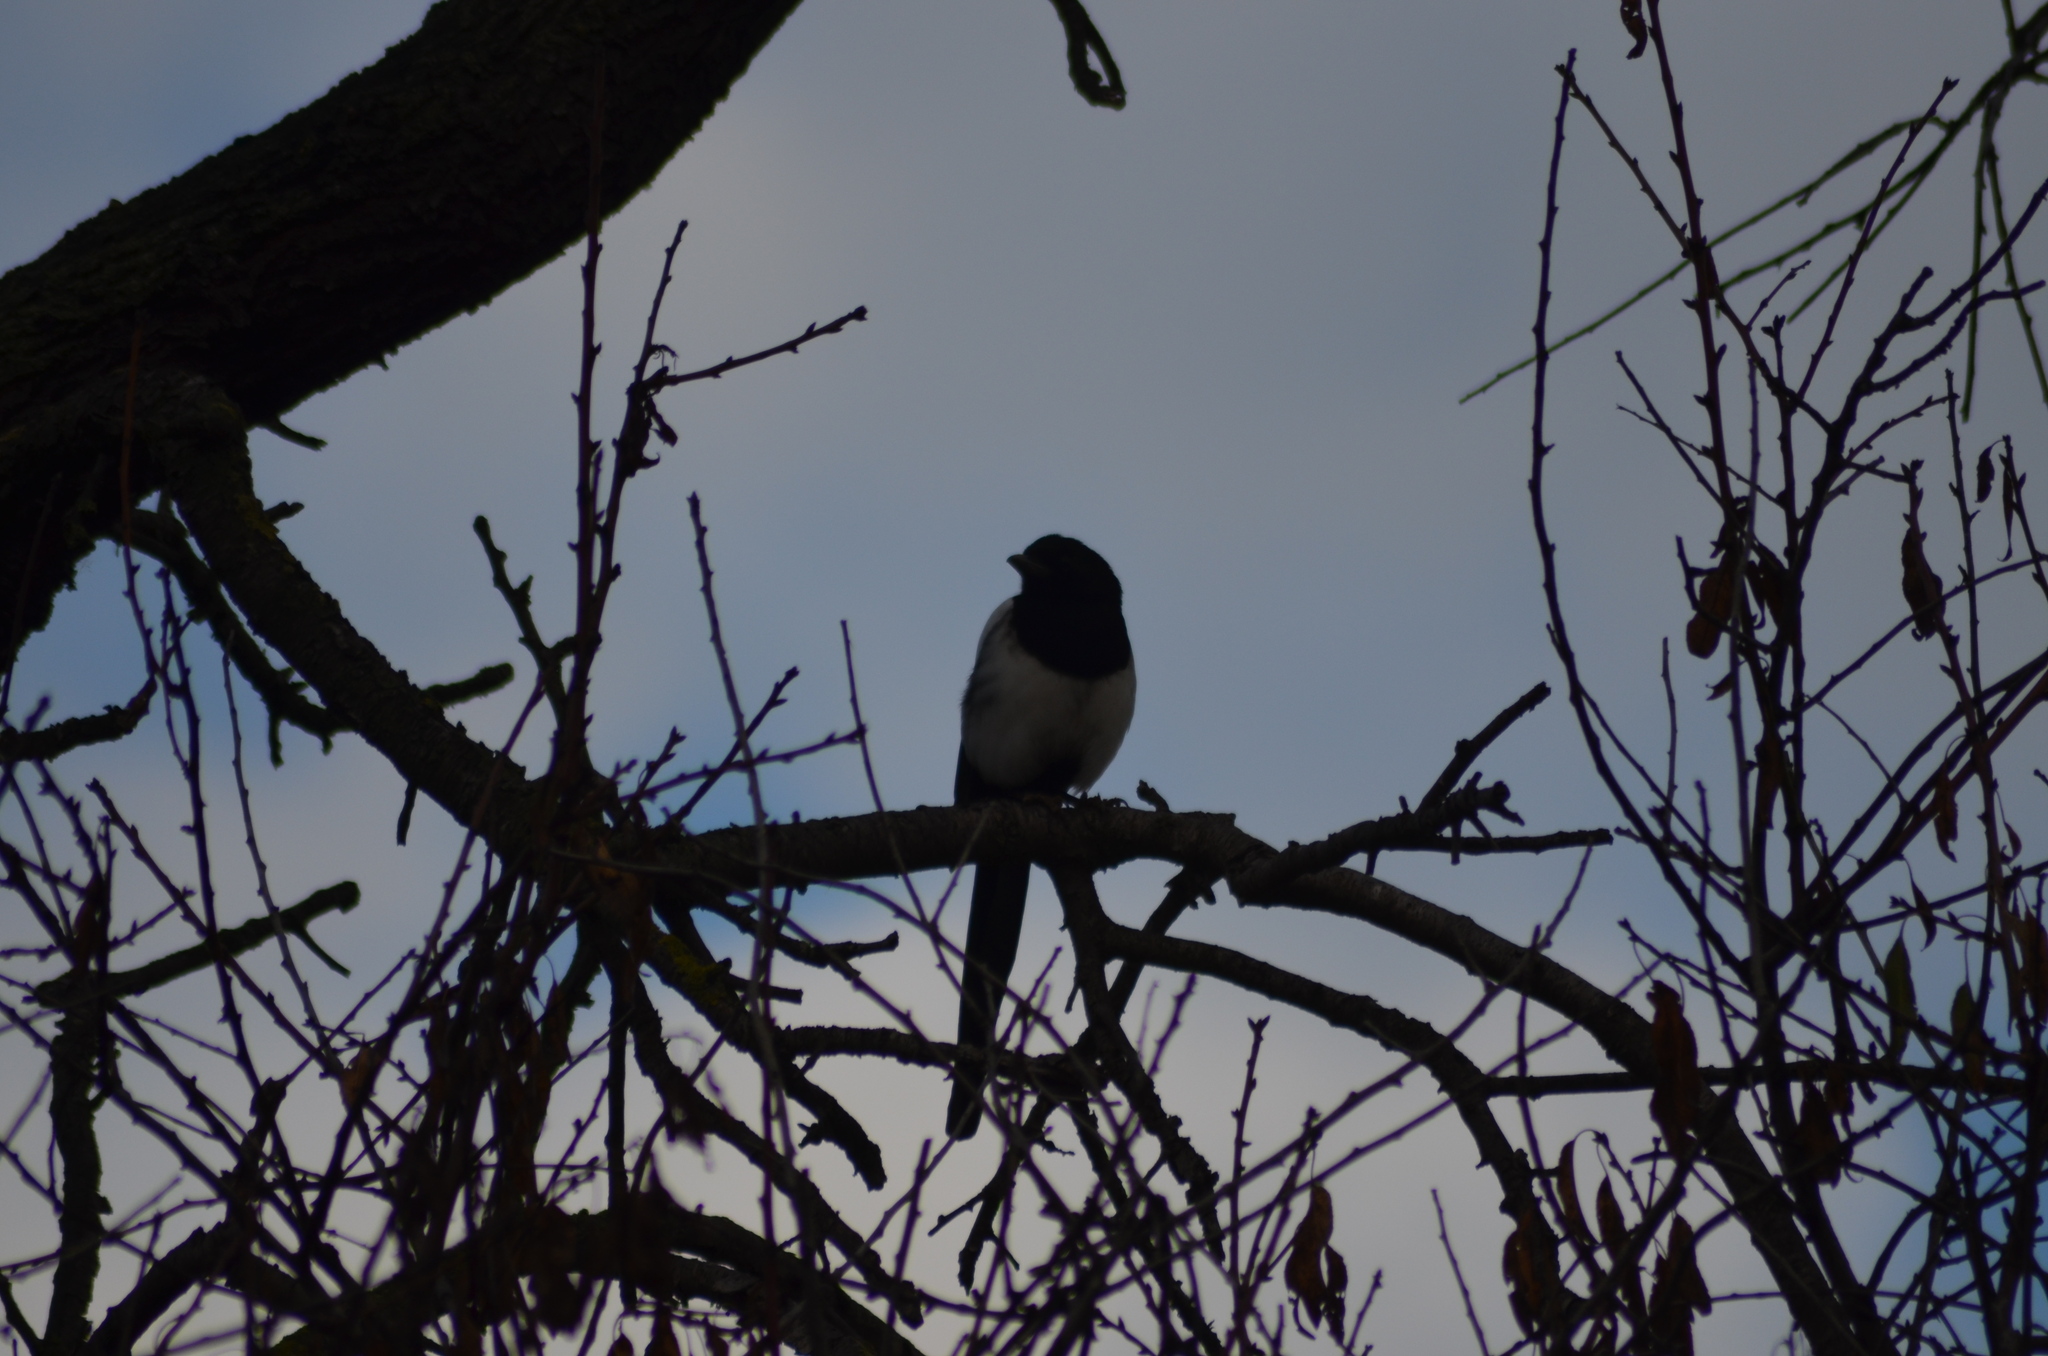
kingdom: Animalia
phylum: Chordata
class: Aves
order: Passeriformes
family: Corvidae
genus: Pica
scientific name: Pica pica
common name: Eurasian magpie
